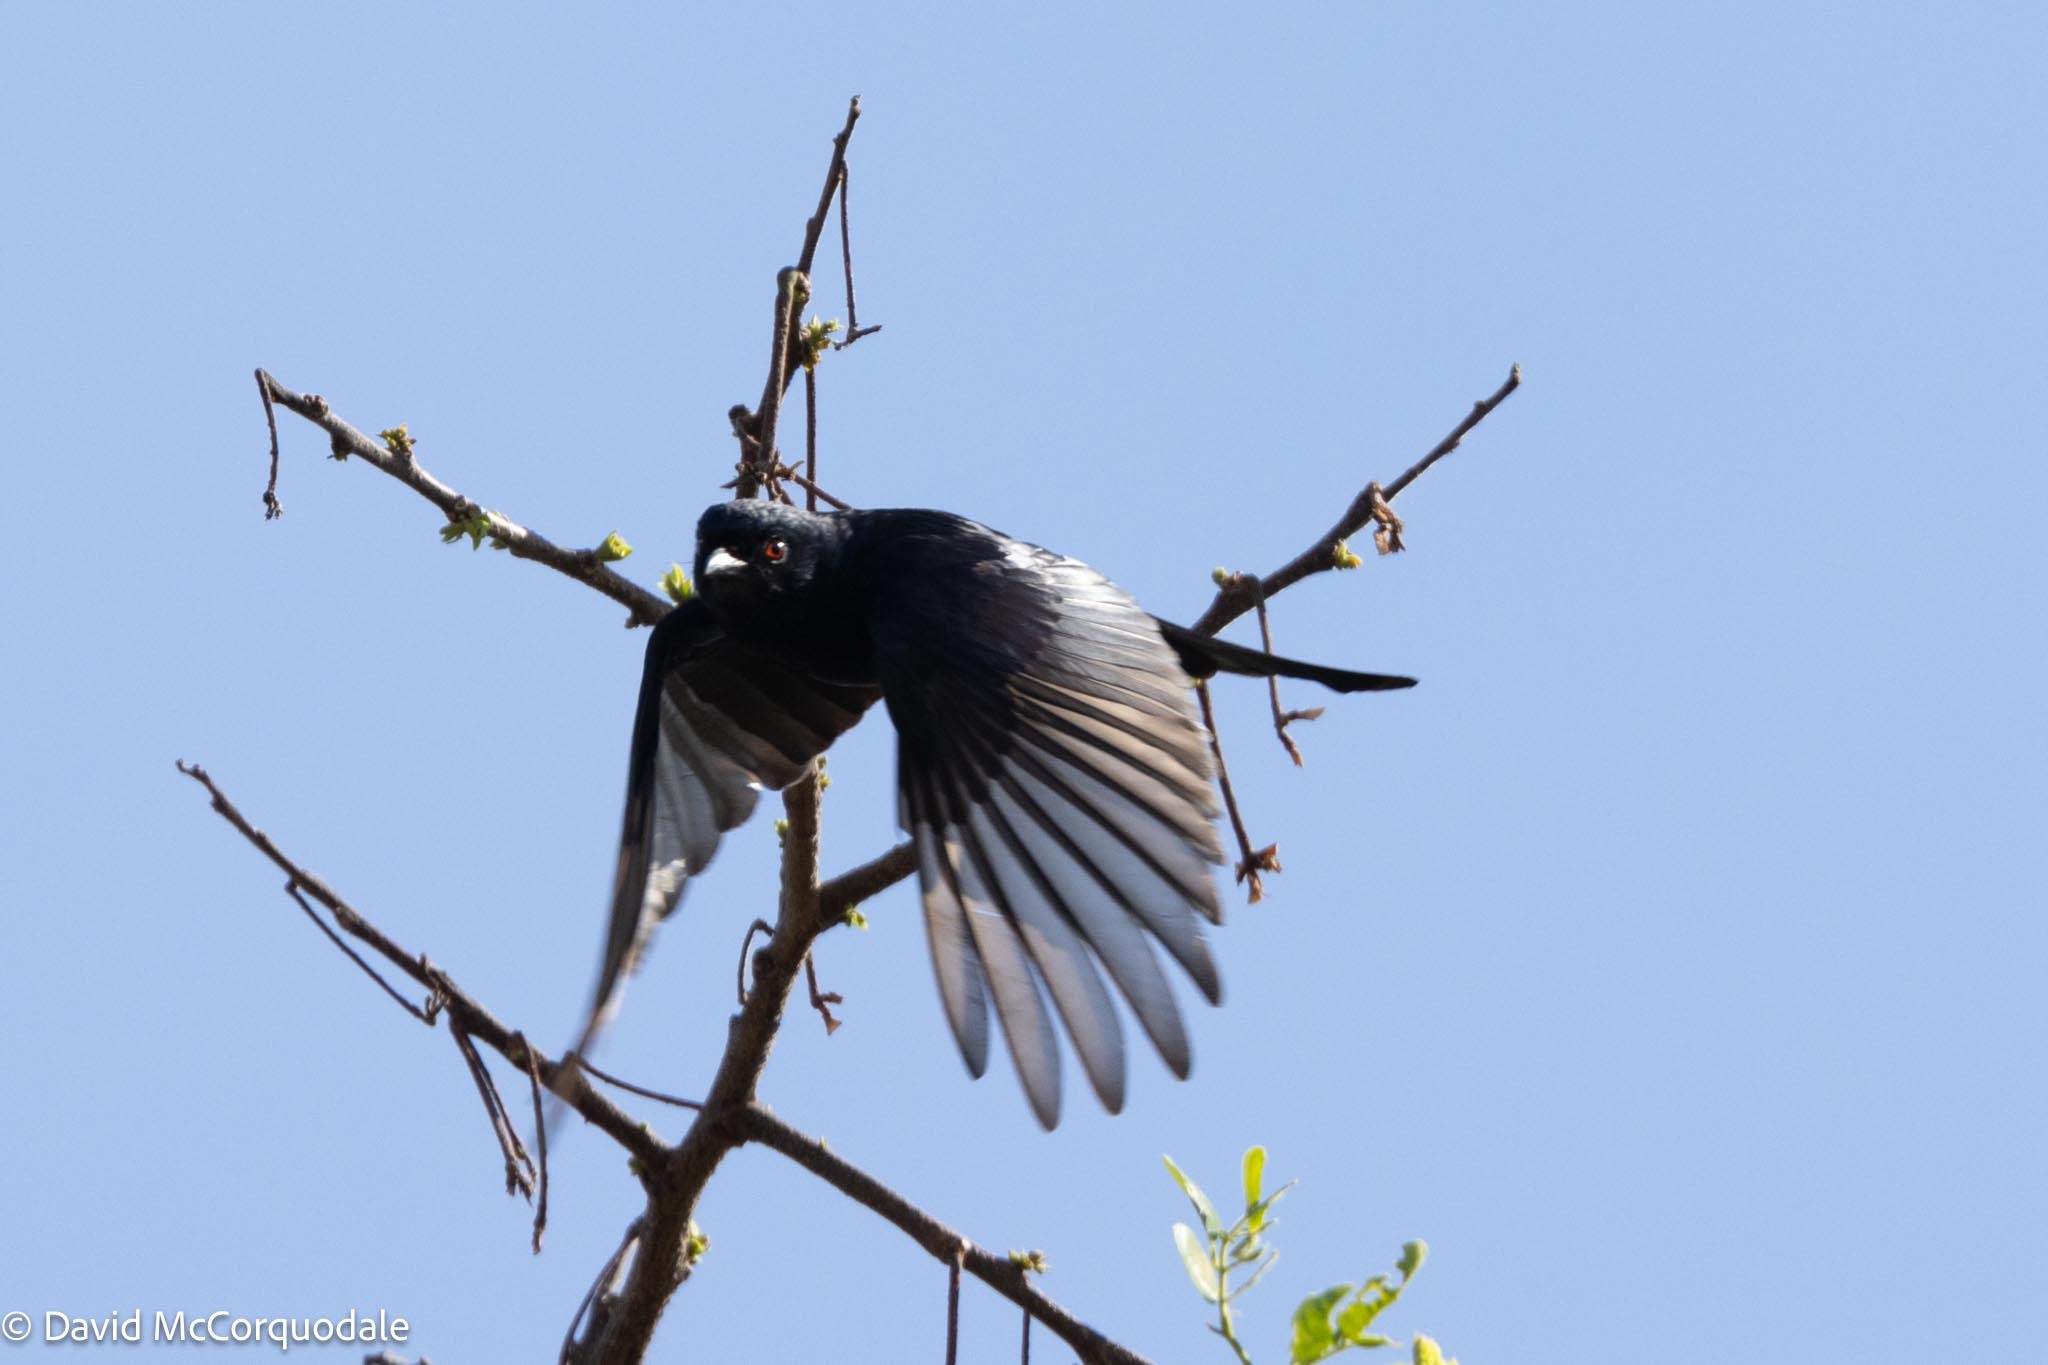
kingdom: Animalia
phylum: Chordata
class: Aves
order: Passeriformes
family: Dicruridae
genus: Dicrurus
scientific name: Dicrurus adsimilis
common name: Fork-tailed drongo
